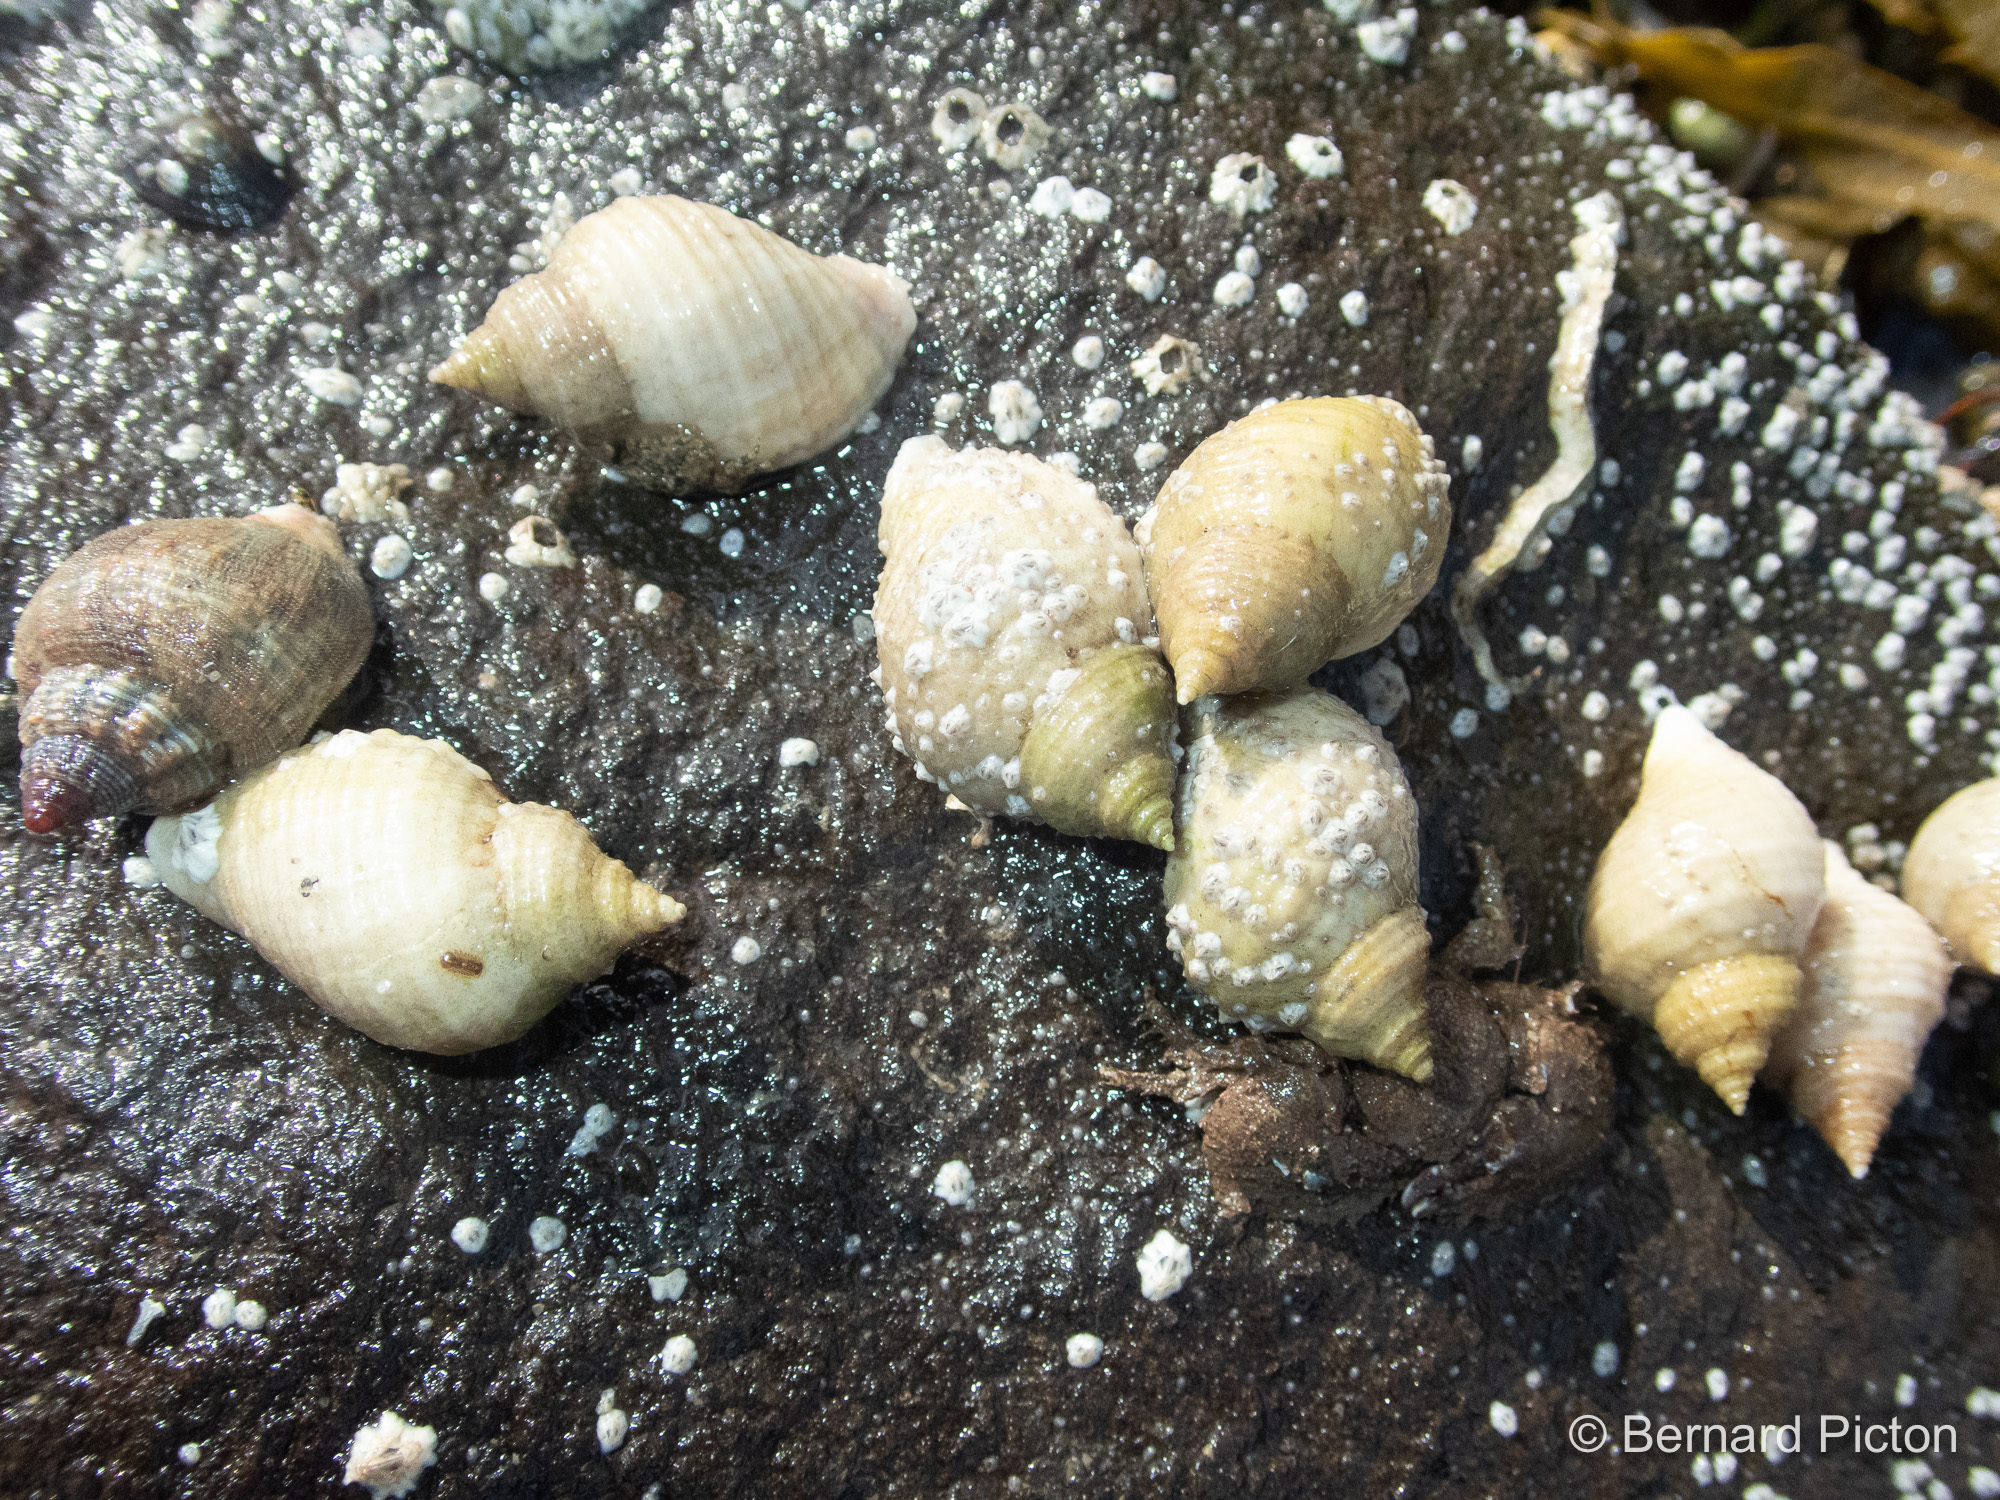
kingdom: Animalia
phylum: Mollusca
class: Gastropoda
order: Neogastropoda
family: Muricidae
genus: Nucella
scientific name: Nucella lapillus
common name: Dog whelk
